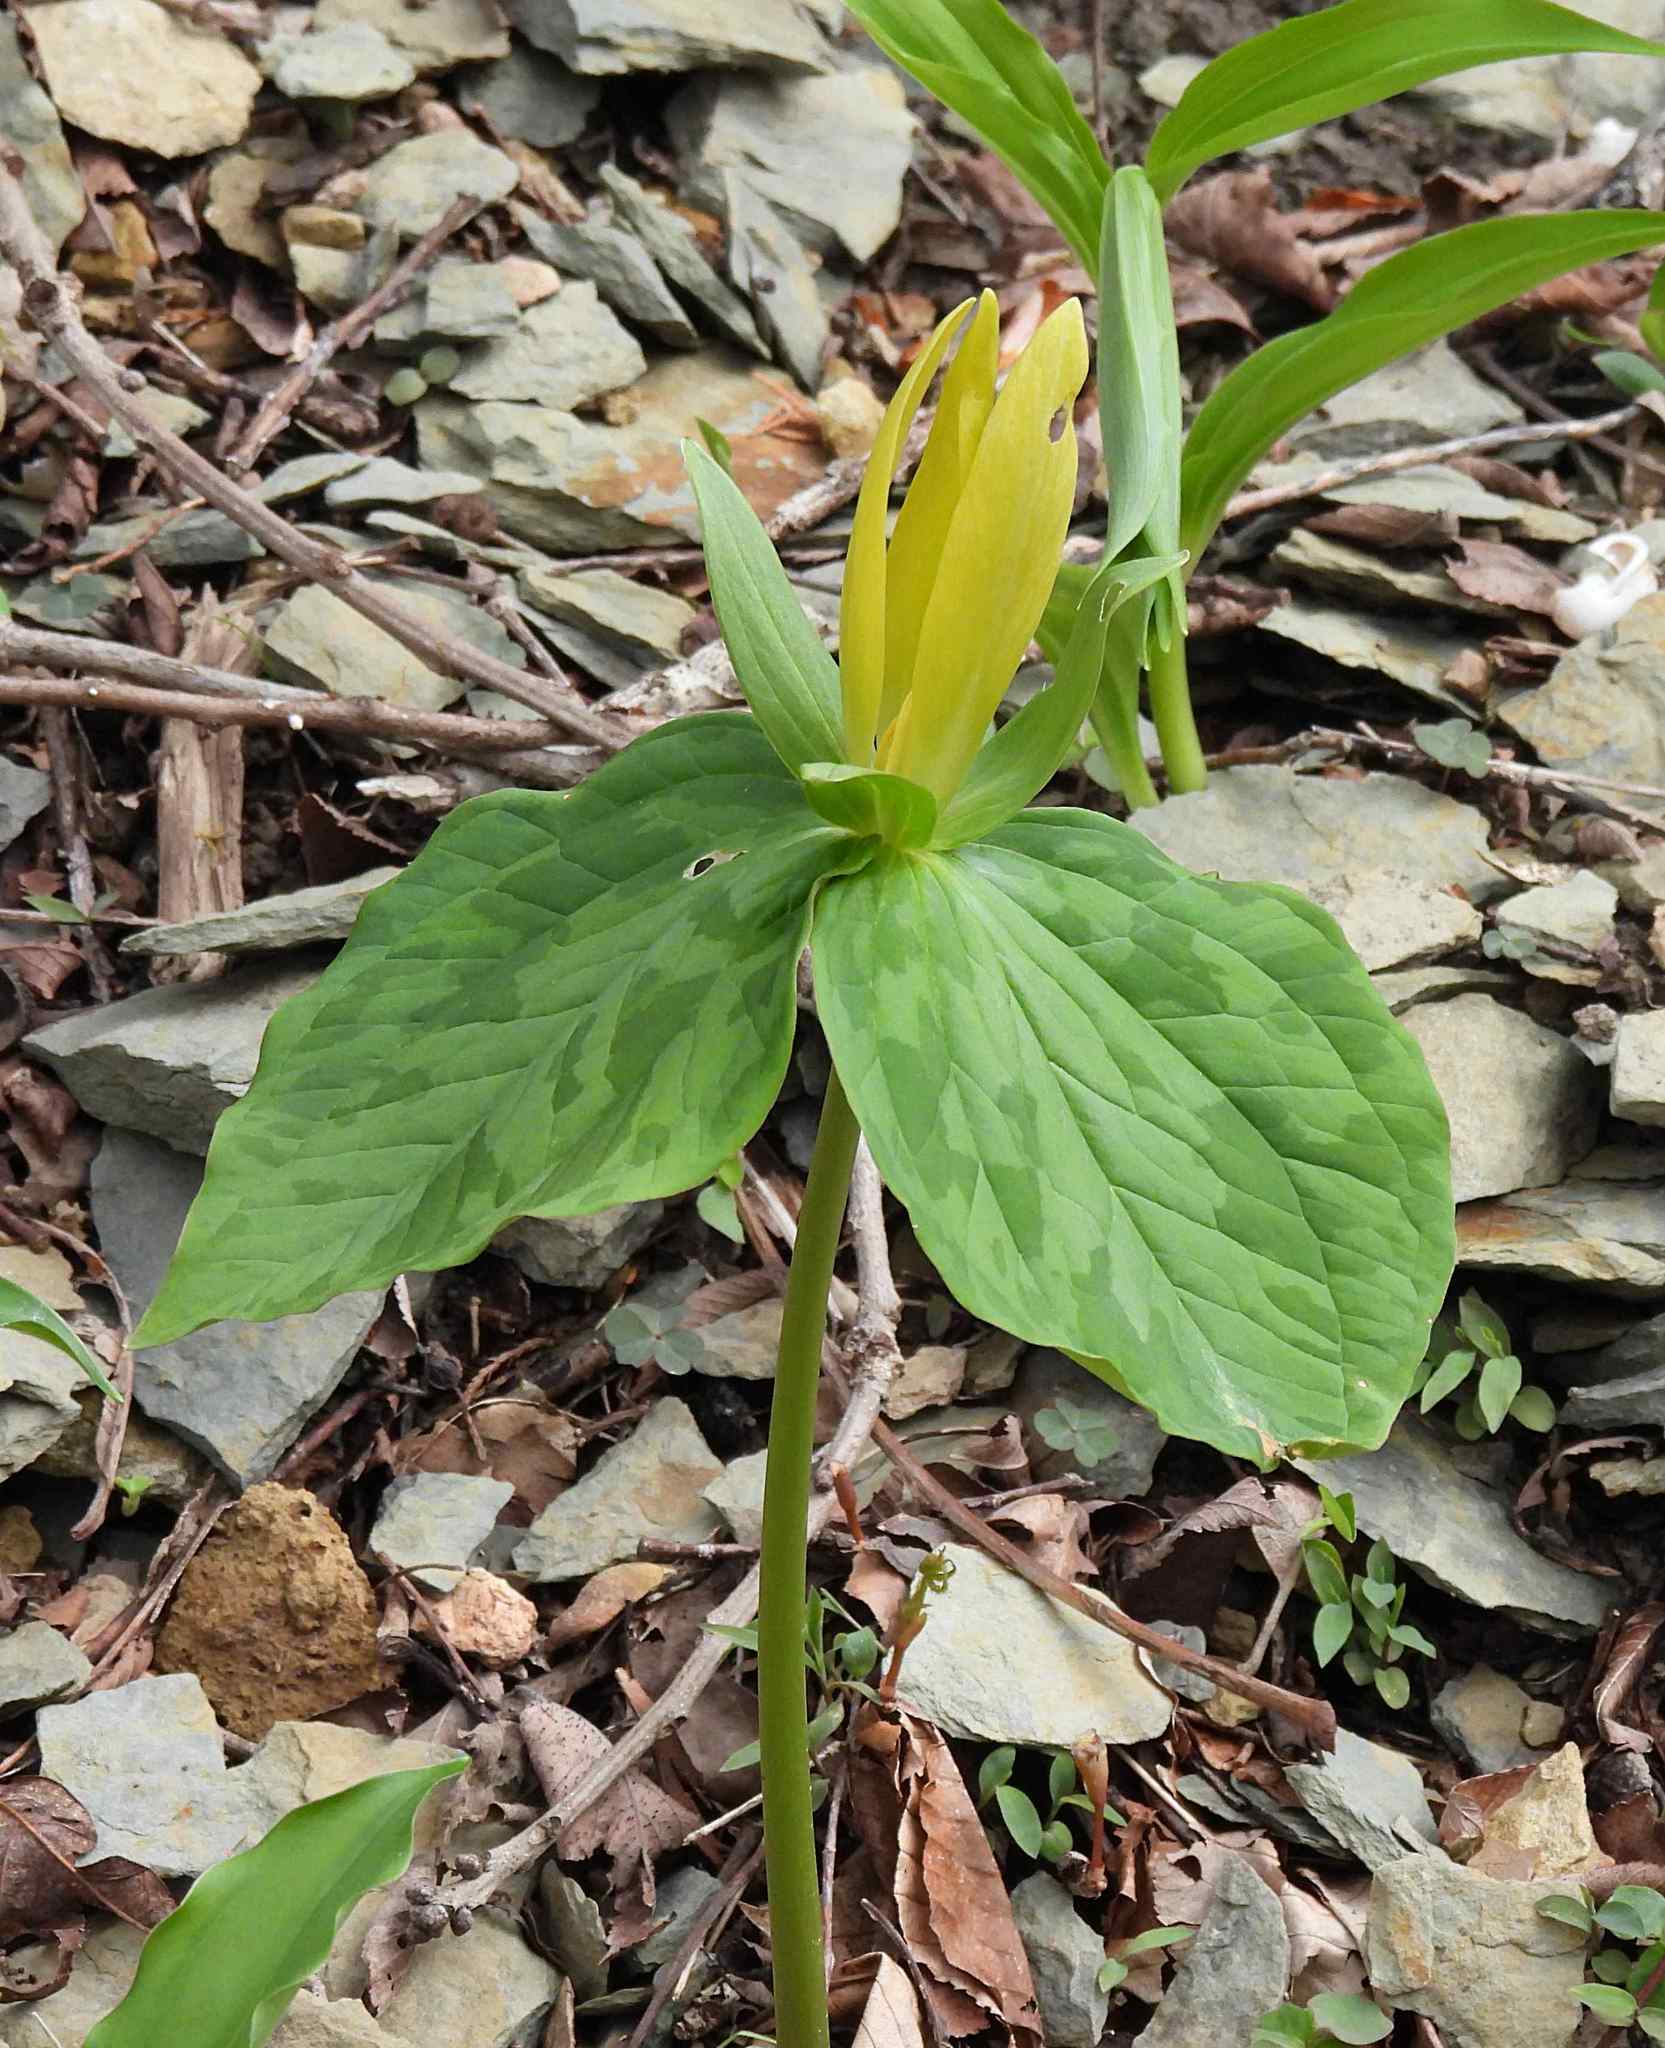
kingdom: Plantae
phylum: Tracheophyta
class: Liliopsida
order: Liliales
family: Melanthiaceae
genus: Trillium
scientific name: Trillium luteum
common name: Wax trillium
